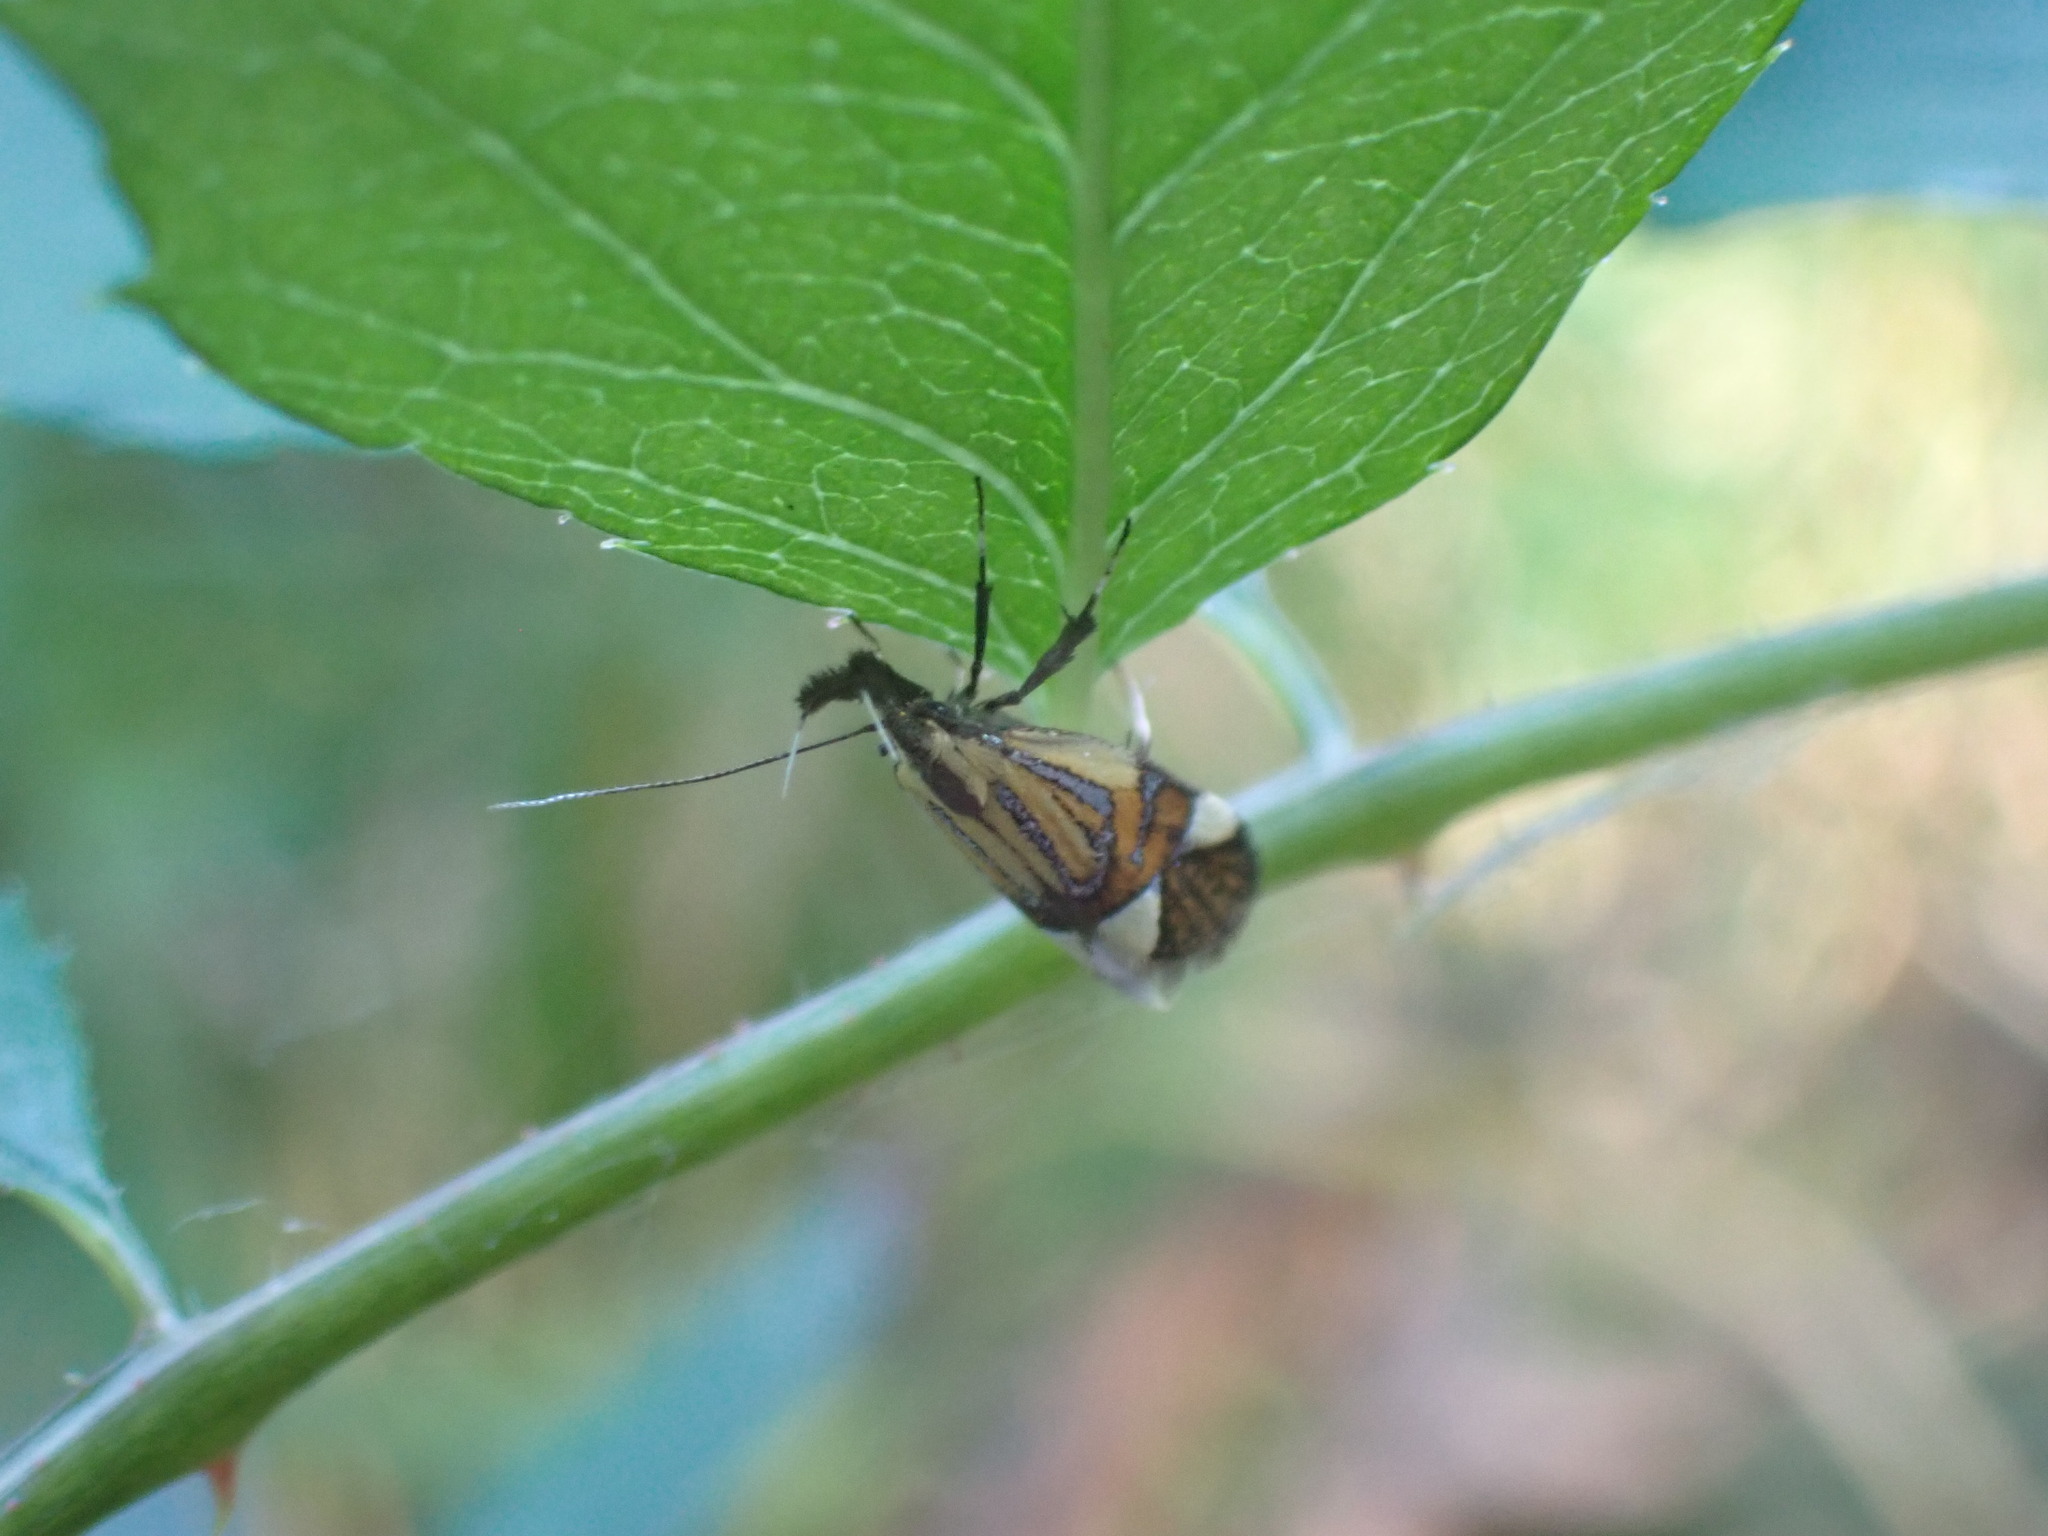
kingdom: Animalia
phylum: Arthropoda
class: Insecta
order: Lepidoptera
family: Oecophoridae
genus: Oecophora
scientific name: Oecophora Alabonia geoffrella
